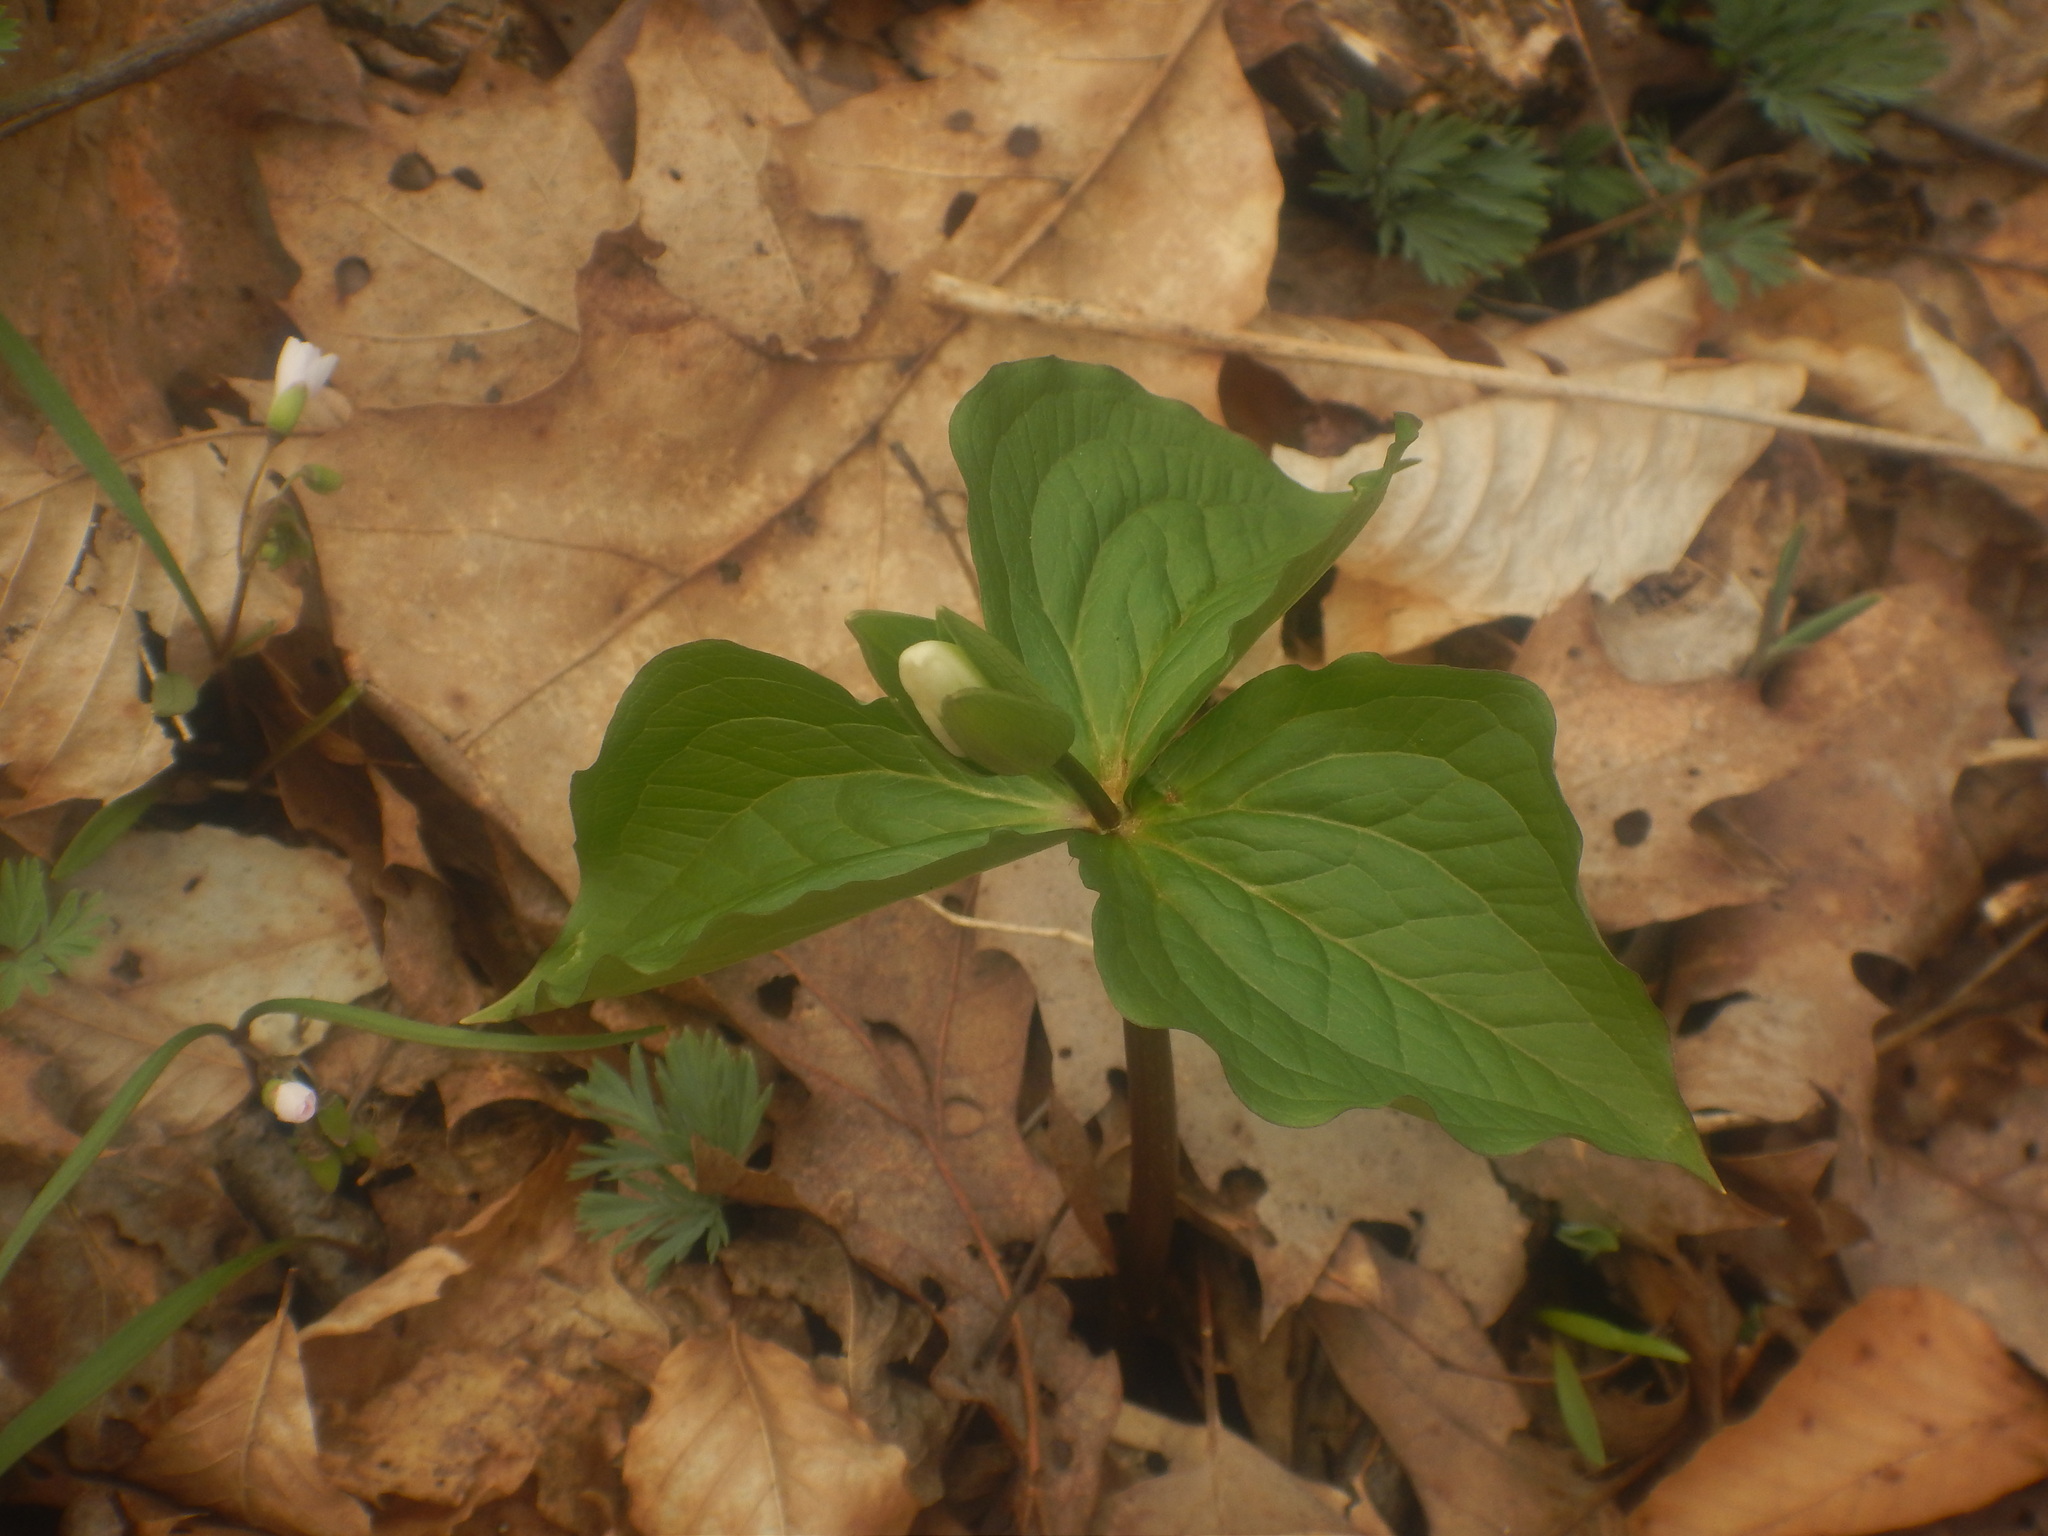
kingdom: Plantae
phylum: Tracheophyta
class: Liliopsida
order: Liliales
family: Melanthiaceae
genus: Trillium
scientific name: Trillium grandiflorum
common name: Great white trillium
